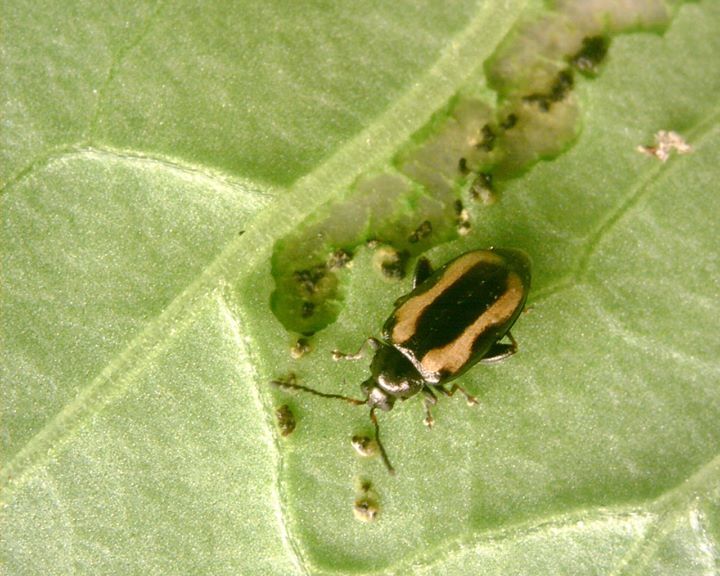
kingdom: Animalia
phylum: Arthropoda
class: Insecta
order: Coleoptera
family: Chrysomelidae
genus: Phyllotreta
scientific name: Phyllotreta striolata
